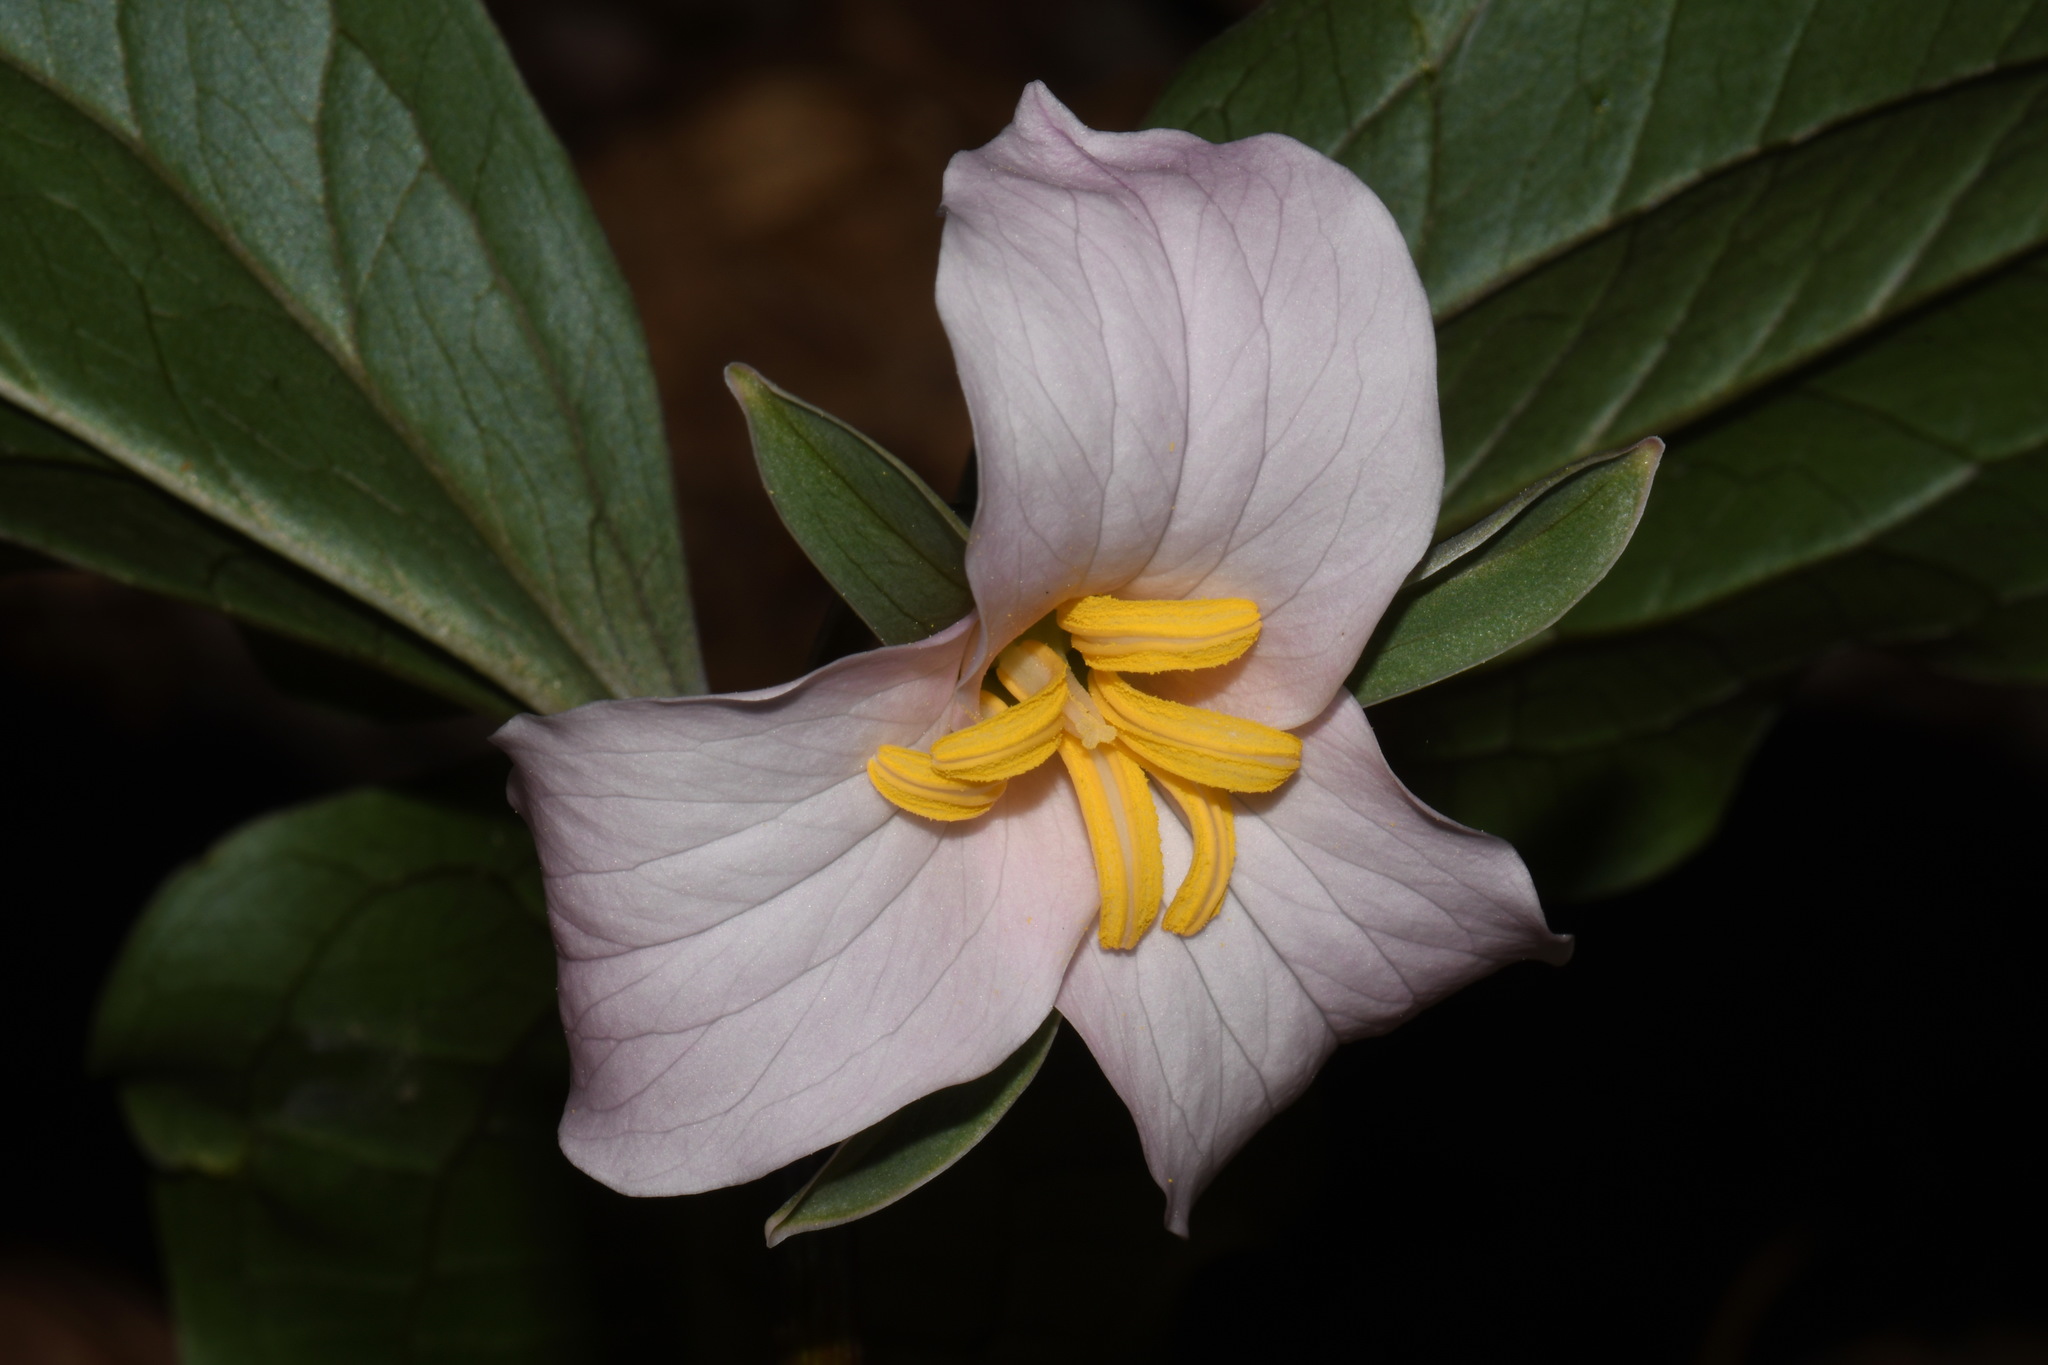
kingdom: Plantae
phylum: Tracheophyta
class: Liliopsida
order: Liliales
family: Melanthiaceae
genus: Trillium
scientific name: Trillium catesbaei
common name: Bashful trillium
